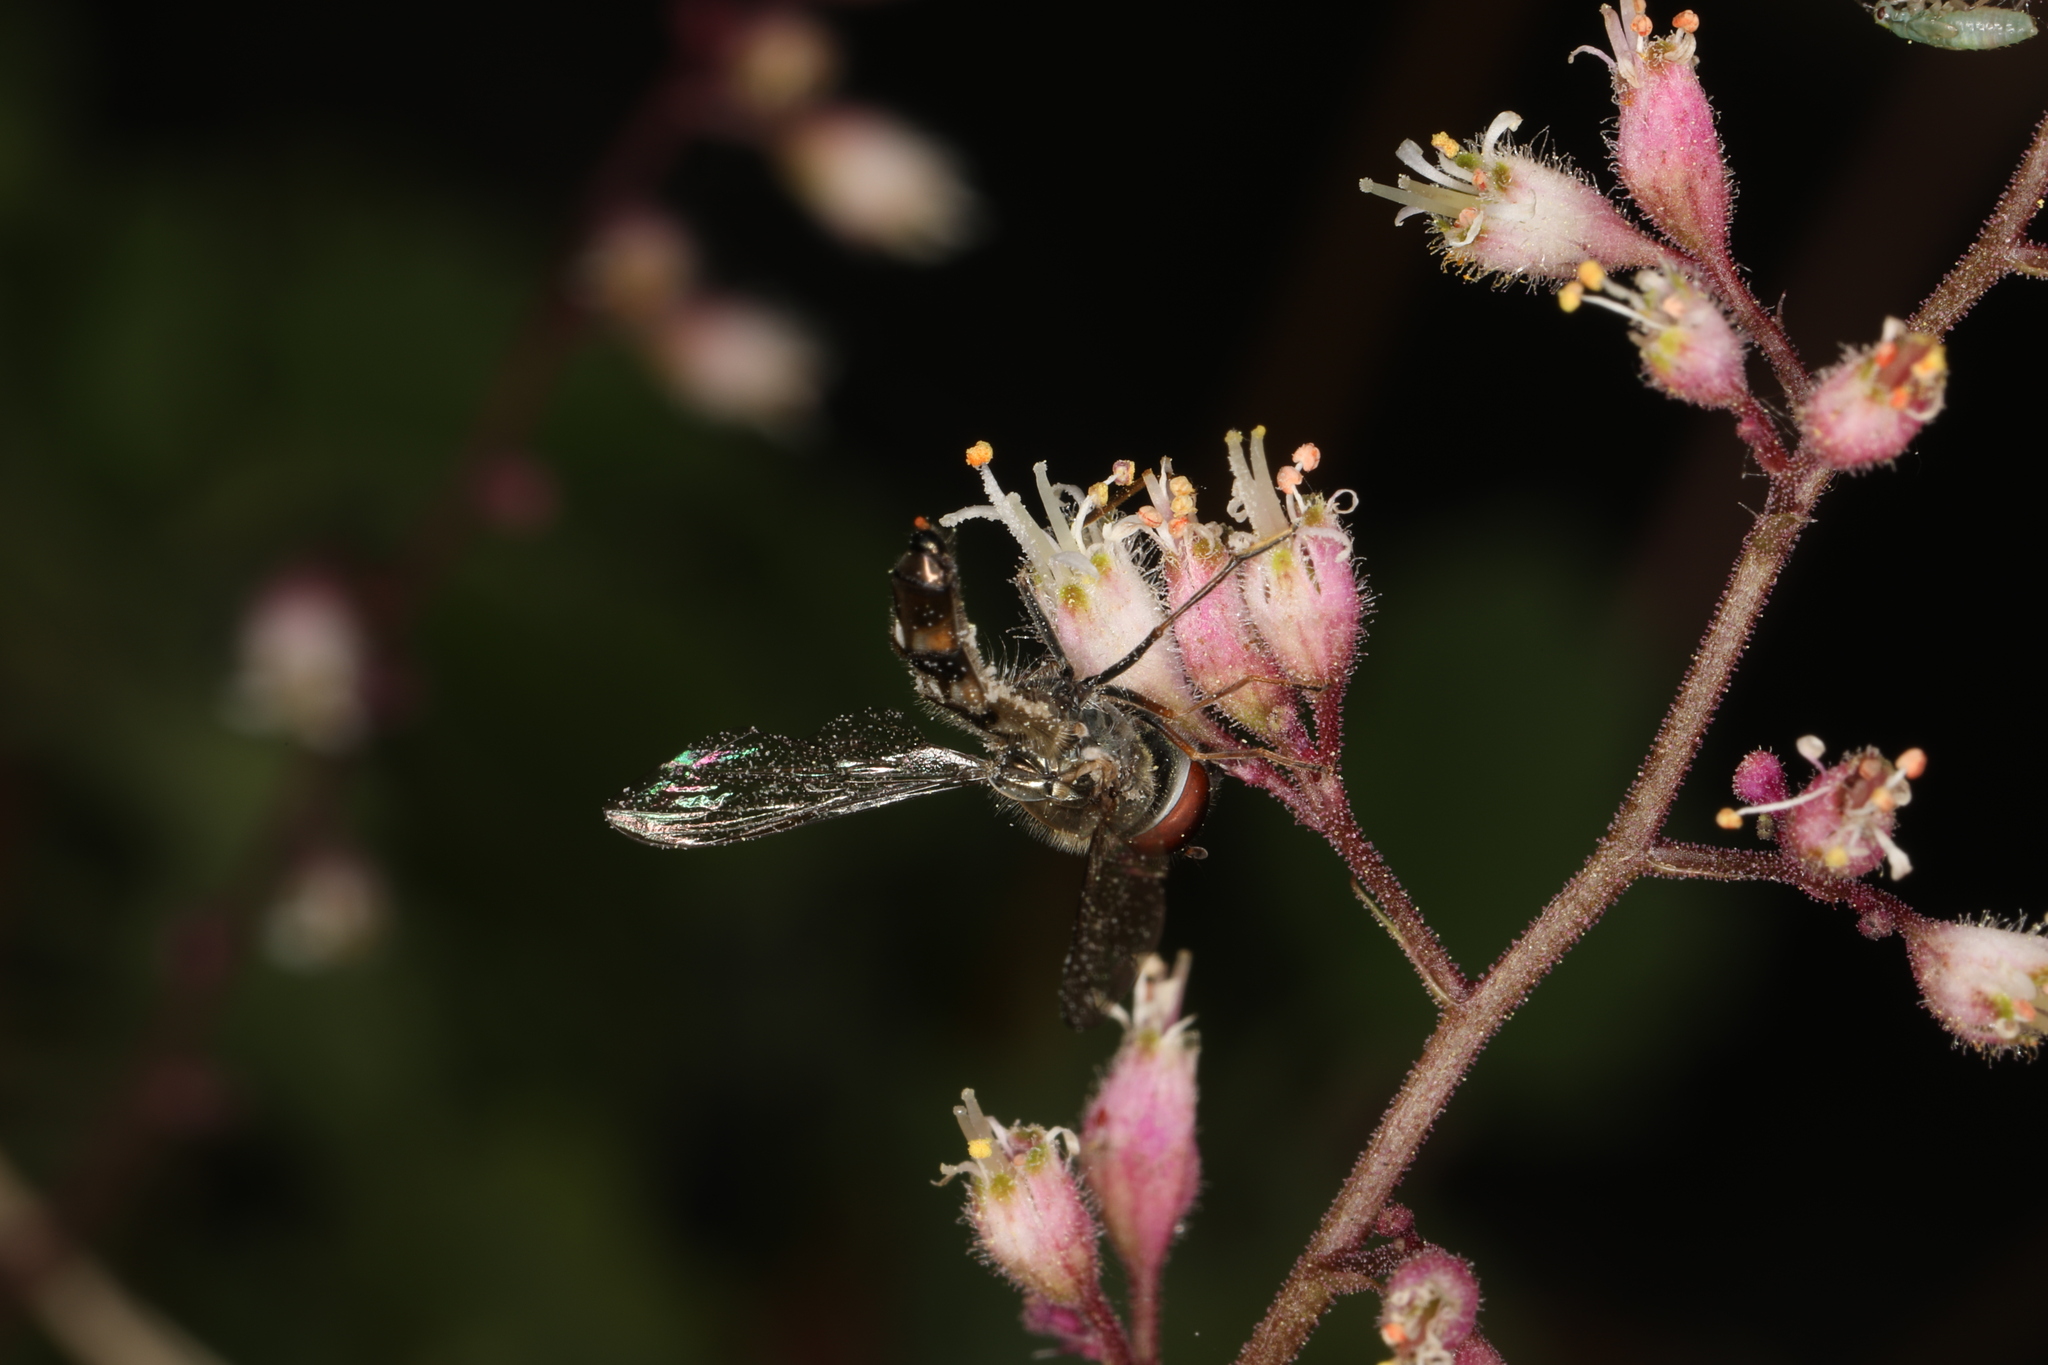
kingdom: Plantae
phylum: Tracheophyta
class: Magnoliopsida
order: Saxifragales
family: Saxifragaceae
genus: Heuchera
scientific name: Heuchera rubescens
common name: Jack-o'the-rocks
